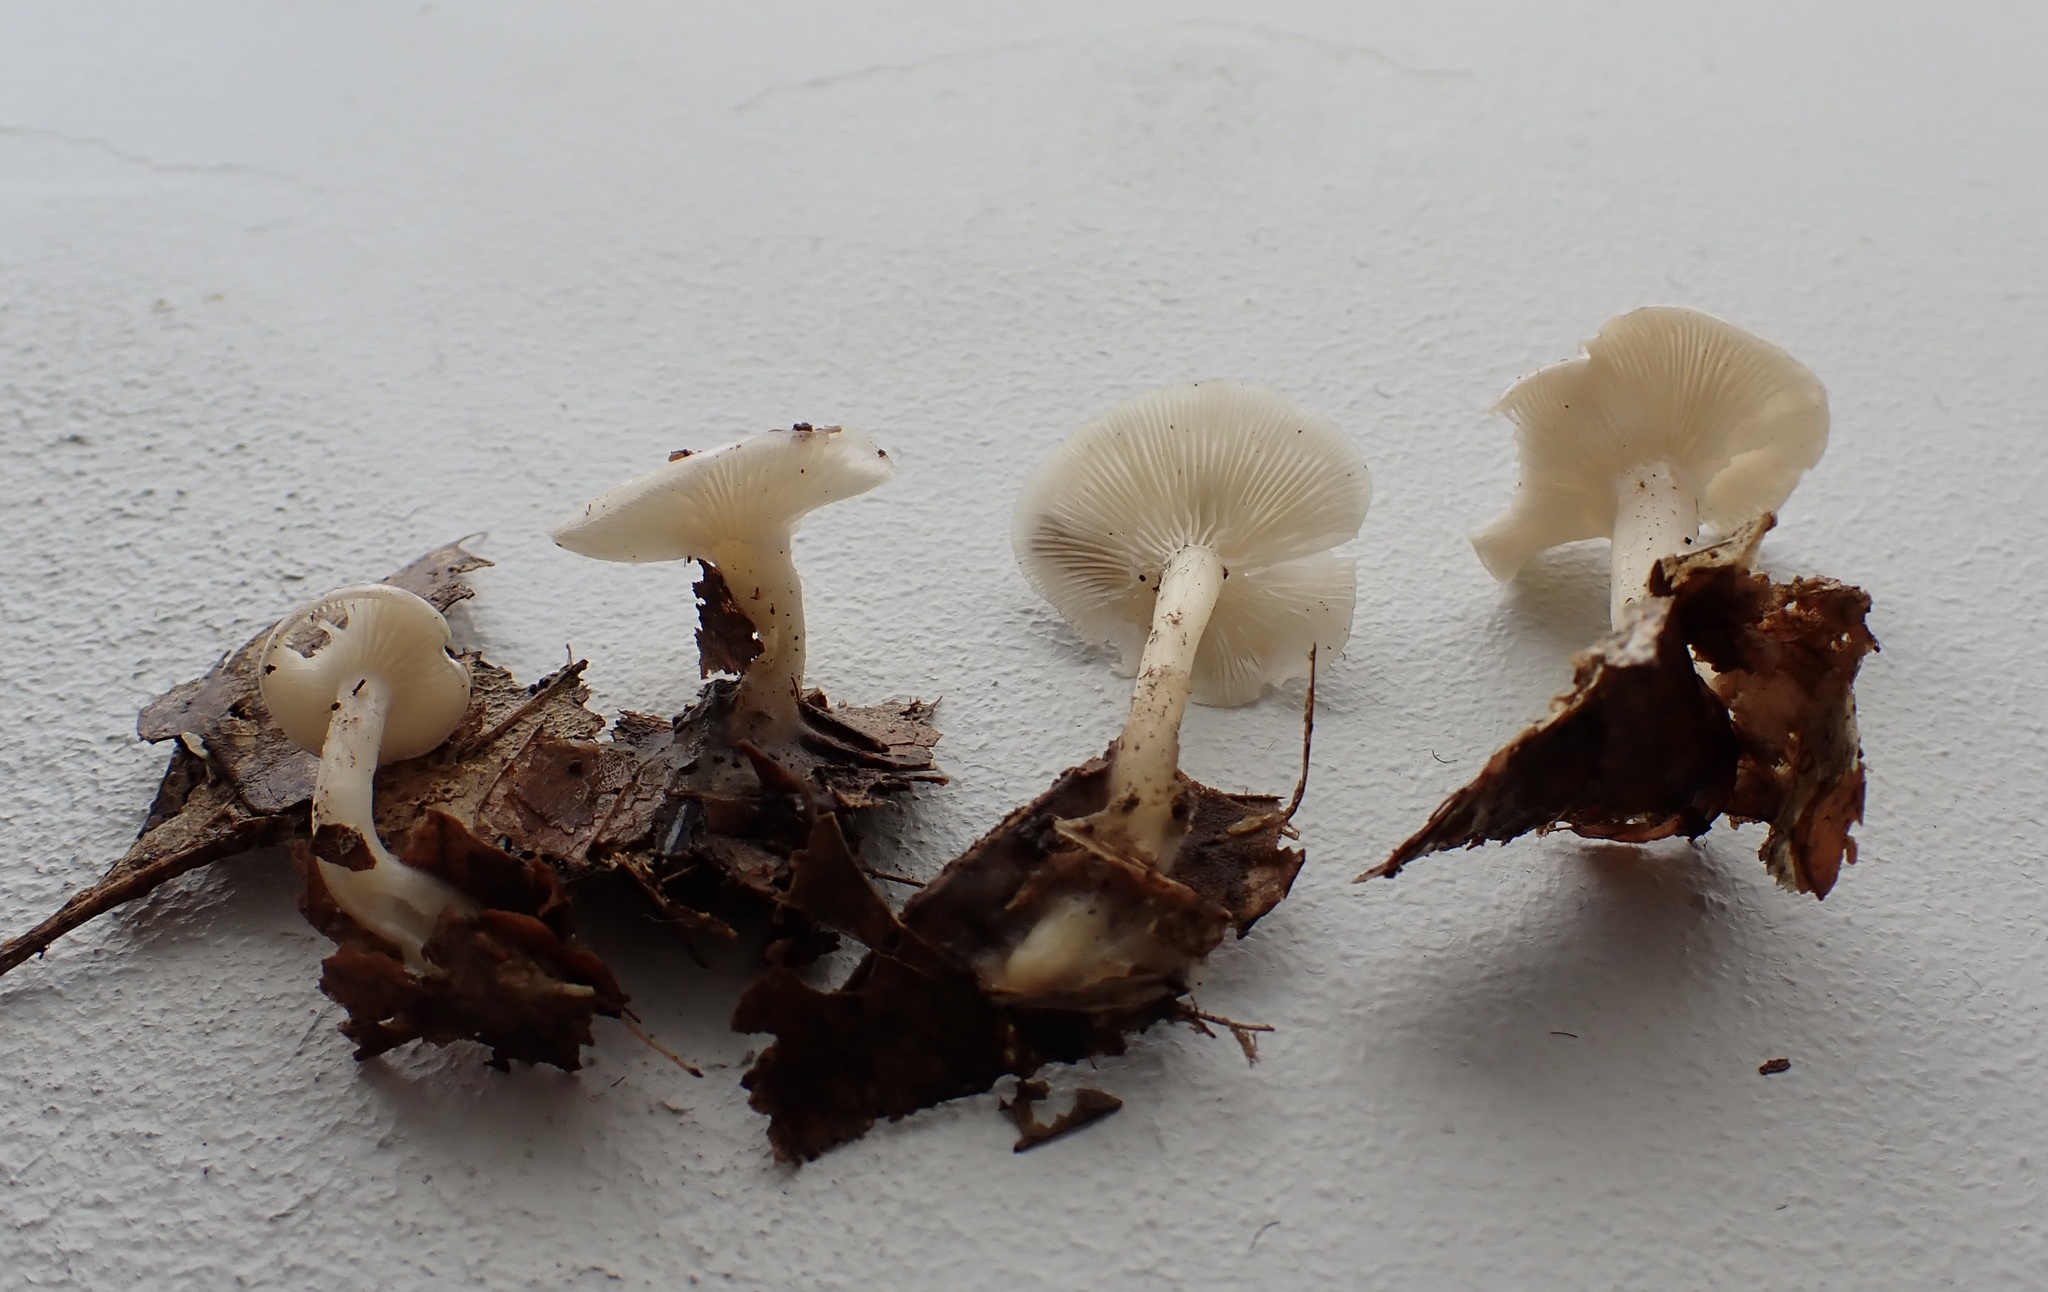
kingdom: Fungi
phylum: Basidiomycota
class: Agaricomycetes
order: Agaricales
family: Tricholomataceae
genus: Leucocybe
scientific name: Leucocybe candicans
